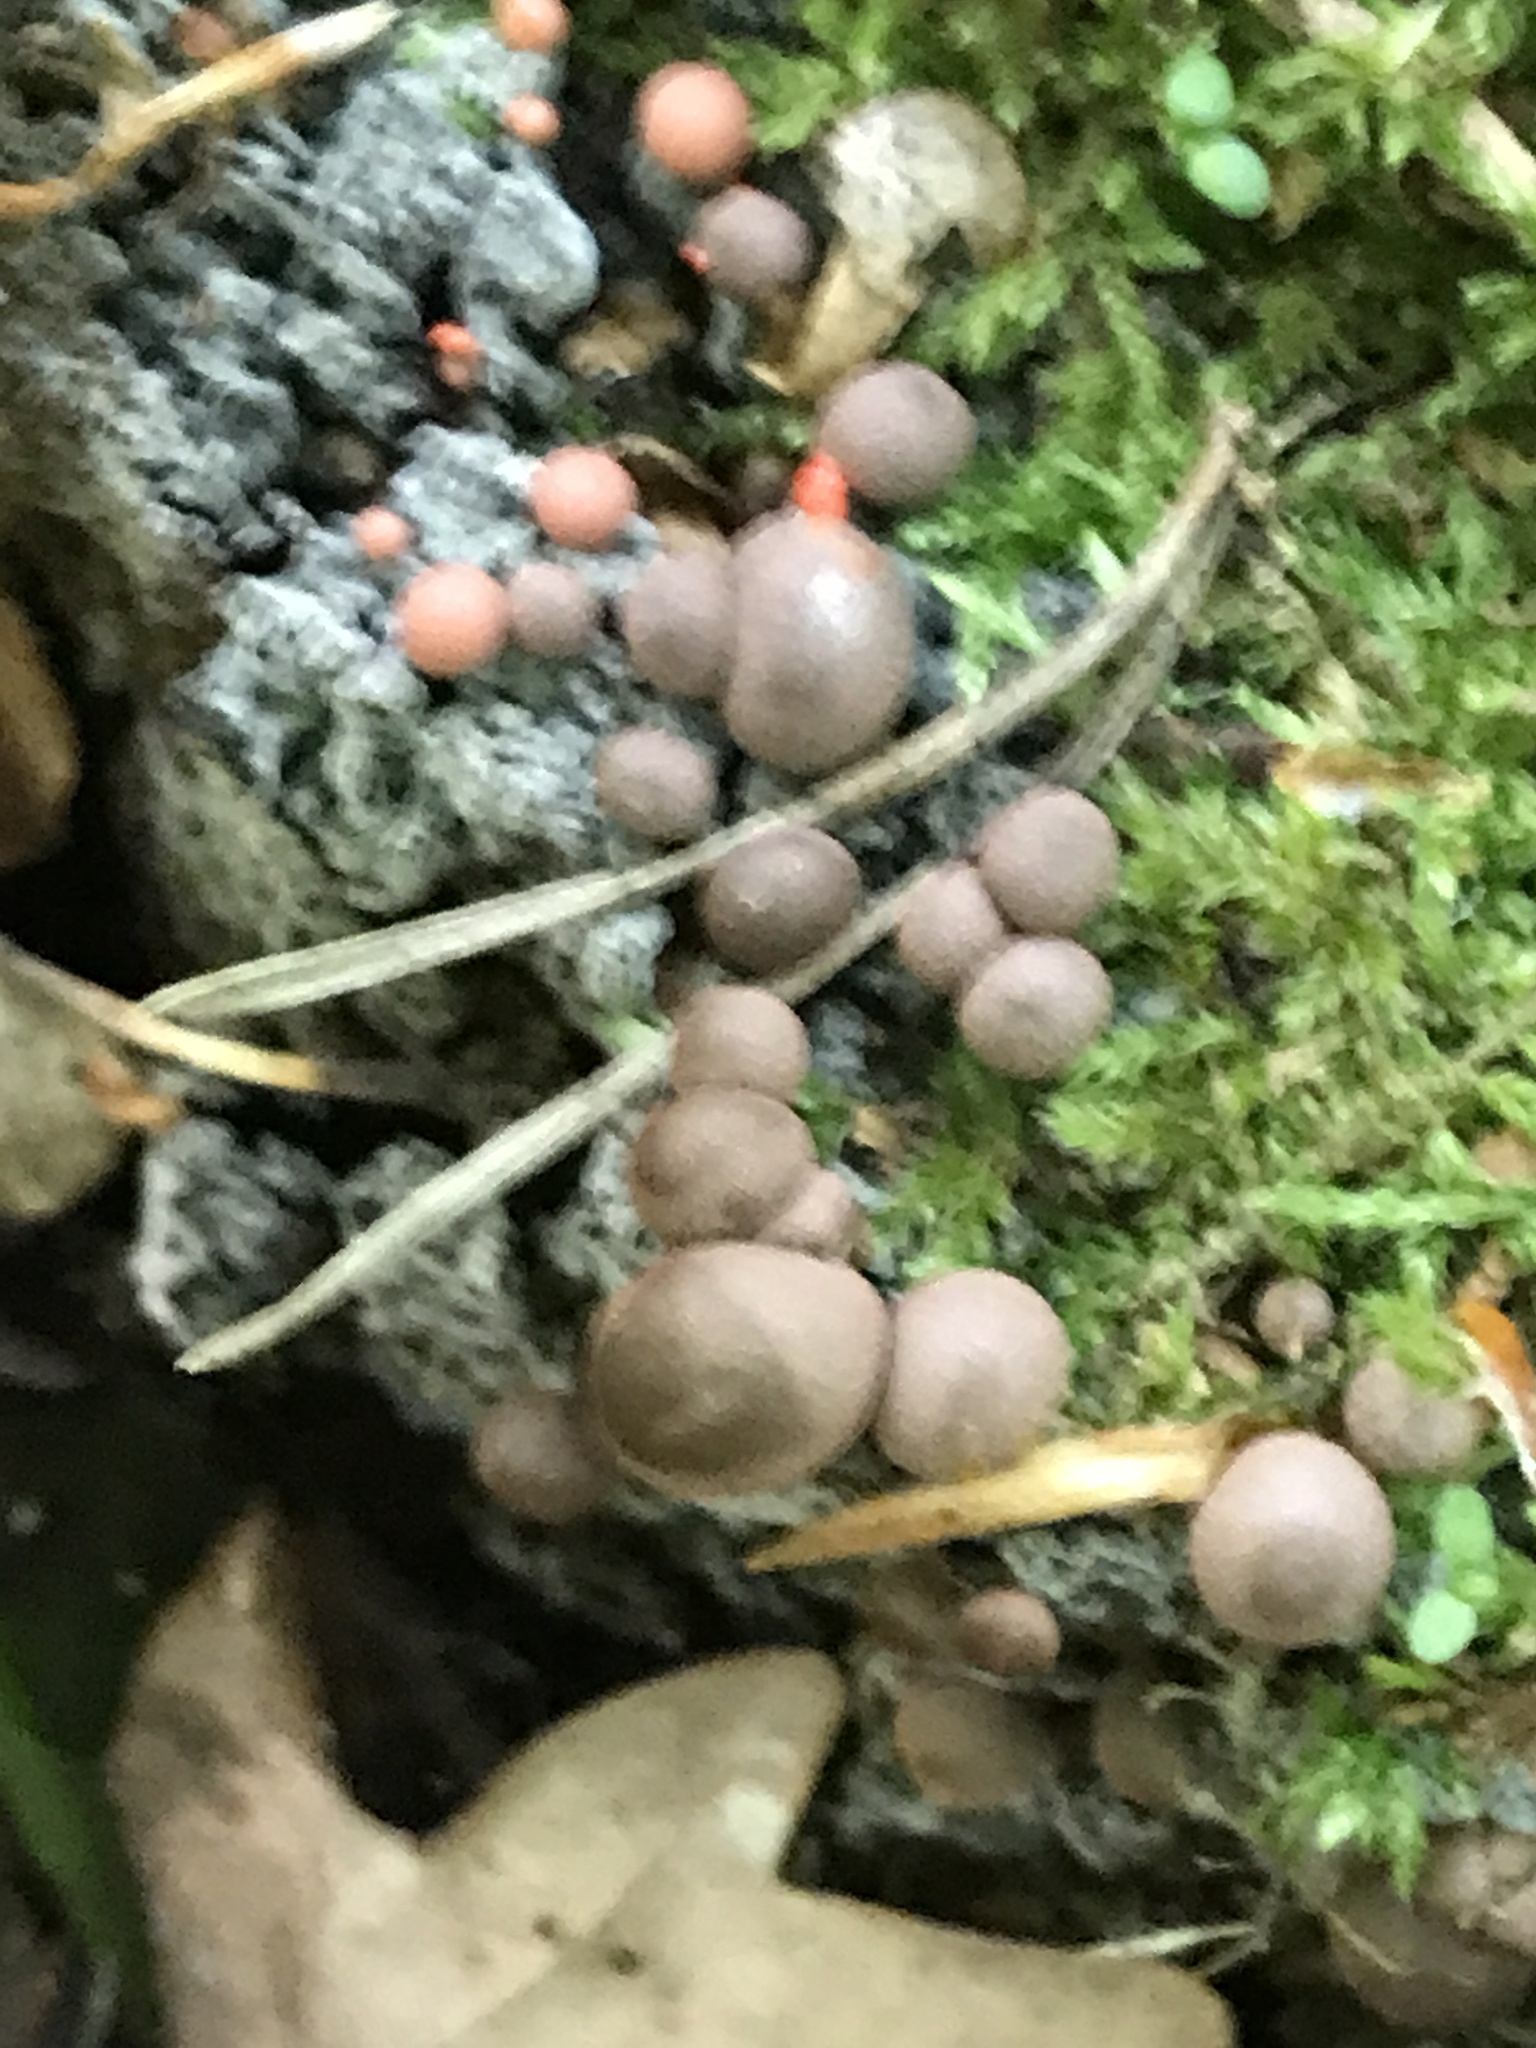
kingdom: Protozoa
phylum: Mycetozoa
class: Myxomycetes
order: Cribrariales
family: Tubiferaceae
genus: Lycogala
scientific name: Lycogala
